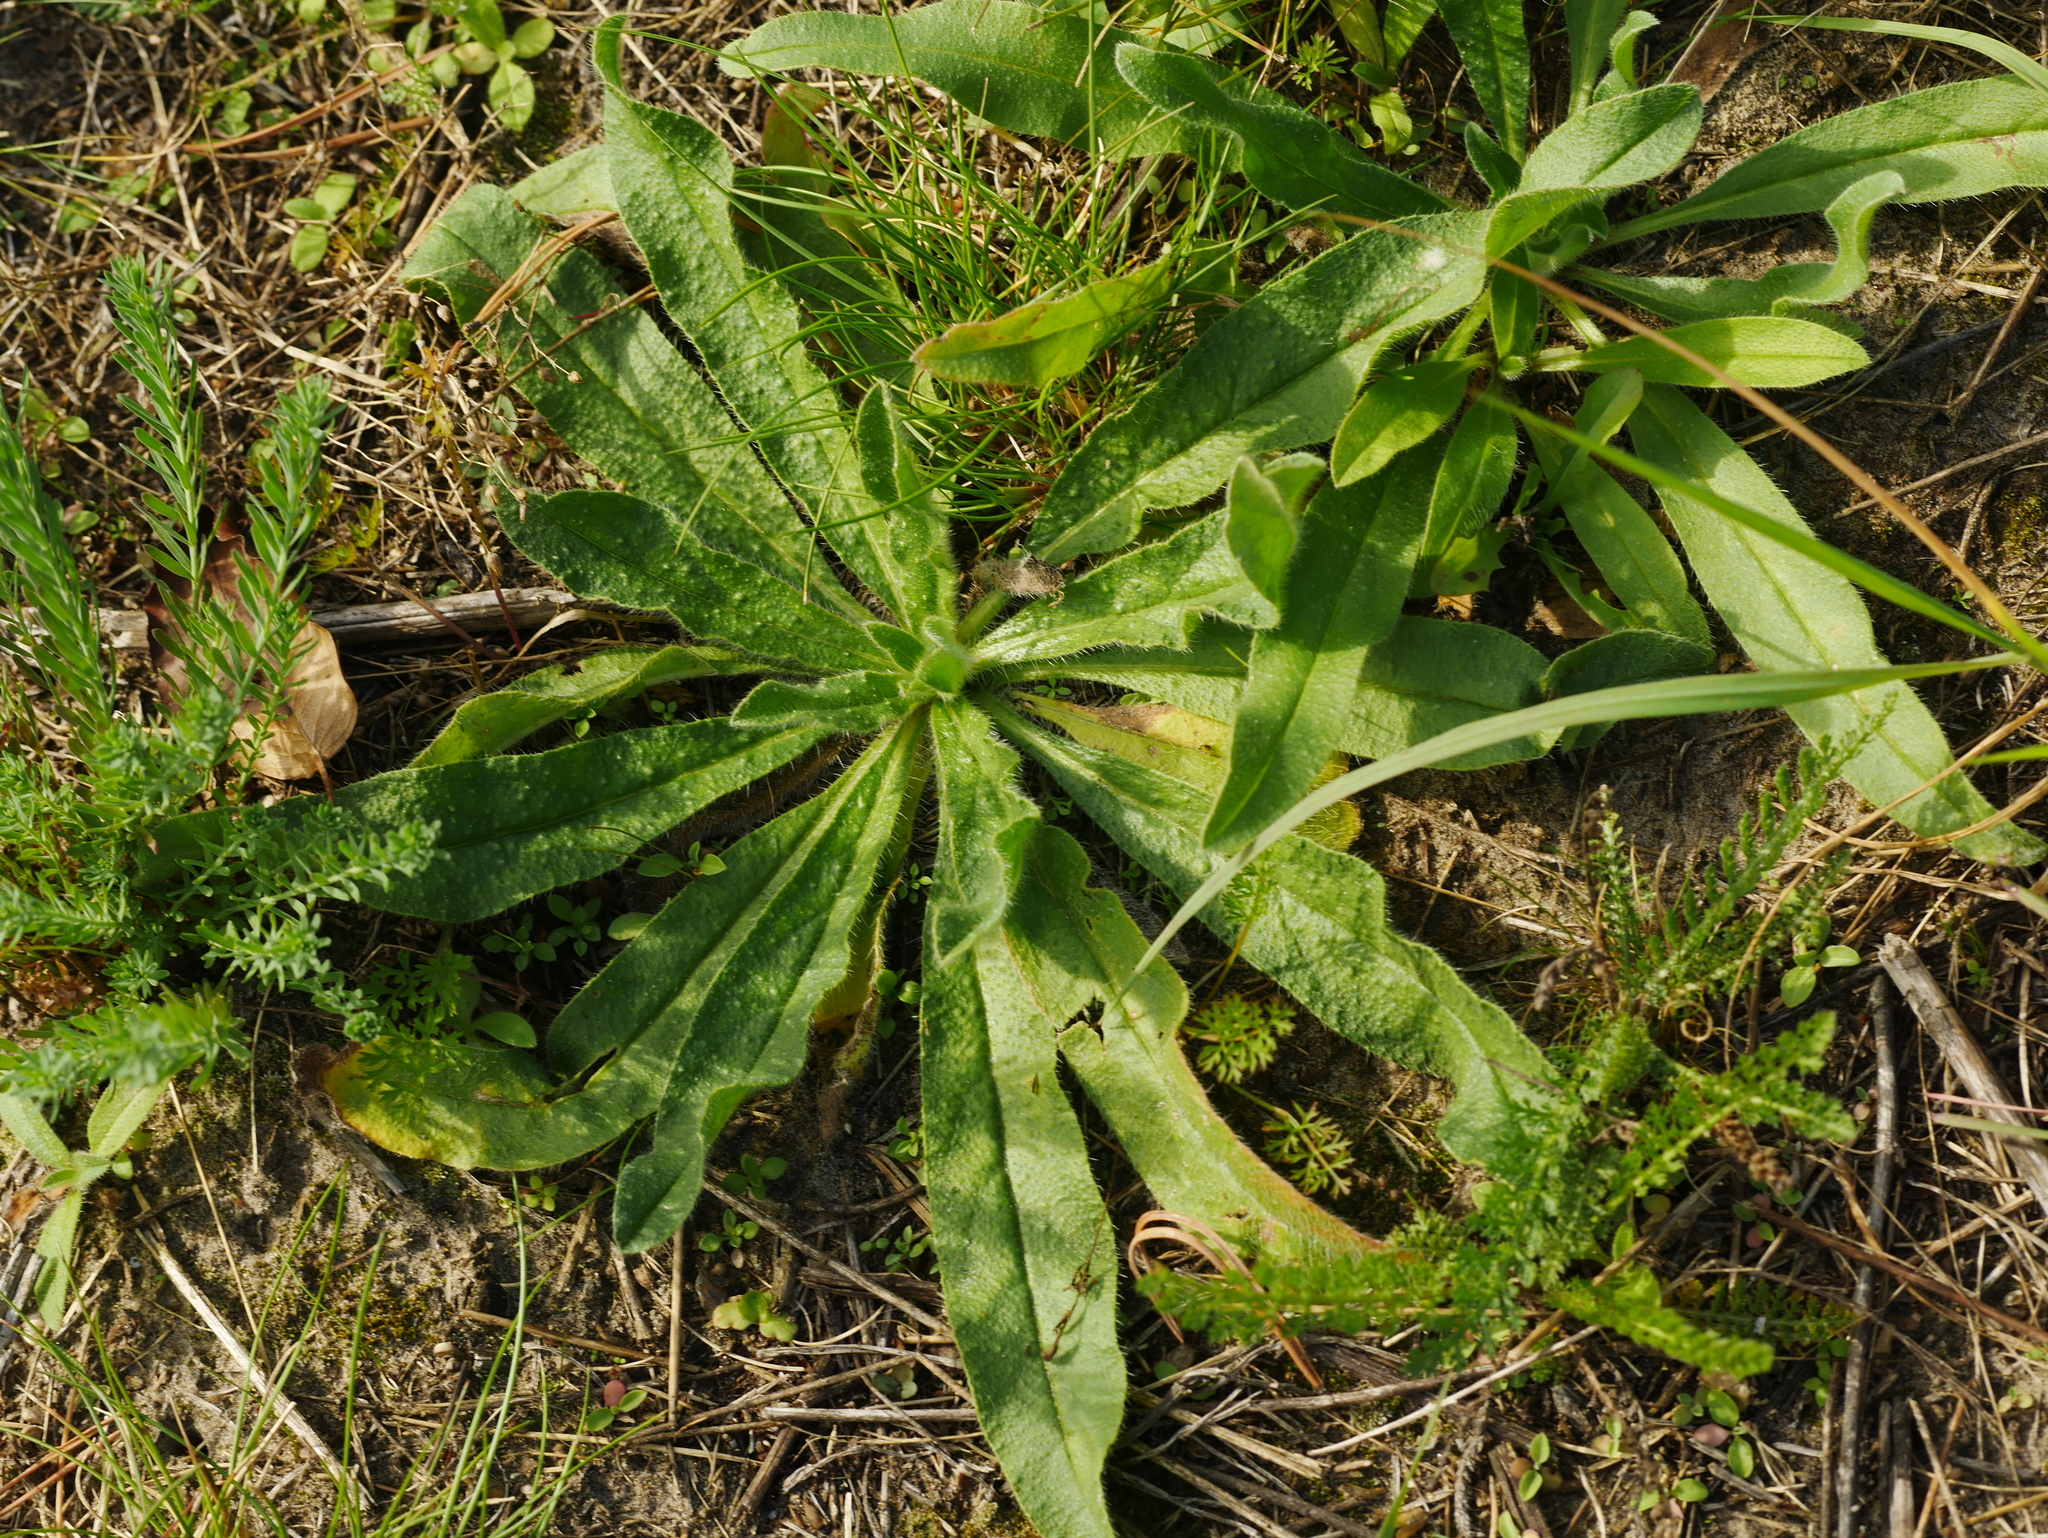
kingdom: Plantae
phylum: Tracheophyta
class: Magnoliopsida
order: Boraginales
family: Boraginaceae
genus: Echium
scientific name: Echium vulgare
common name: Common viper's bugloss
